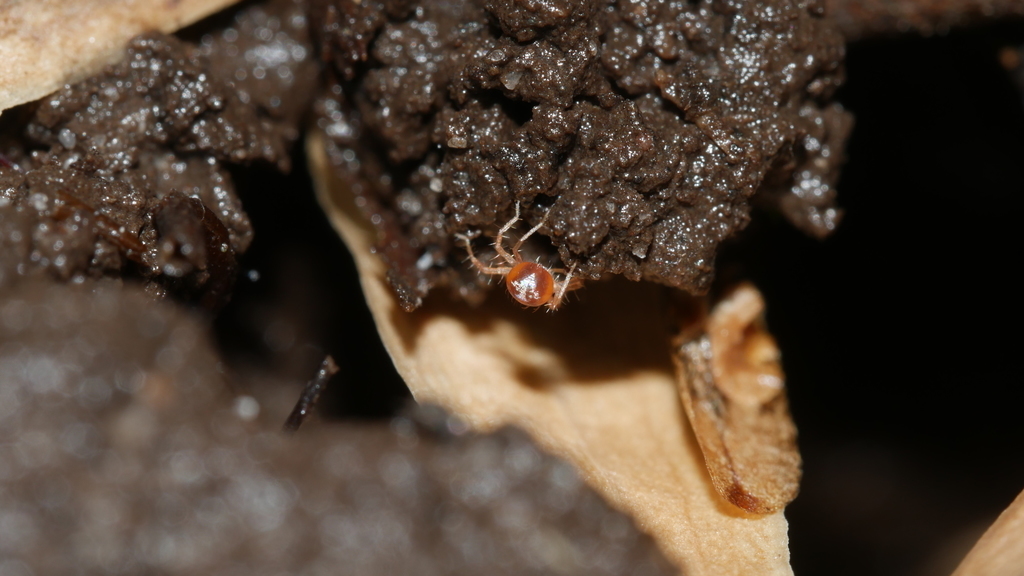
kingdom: Animalia
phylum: Arthropoda
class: Arachnida
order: Trombidiformes
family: Anystidae
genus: Anystis
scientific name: Anystis
